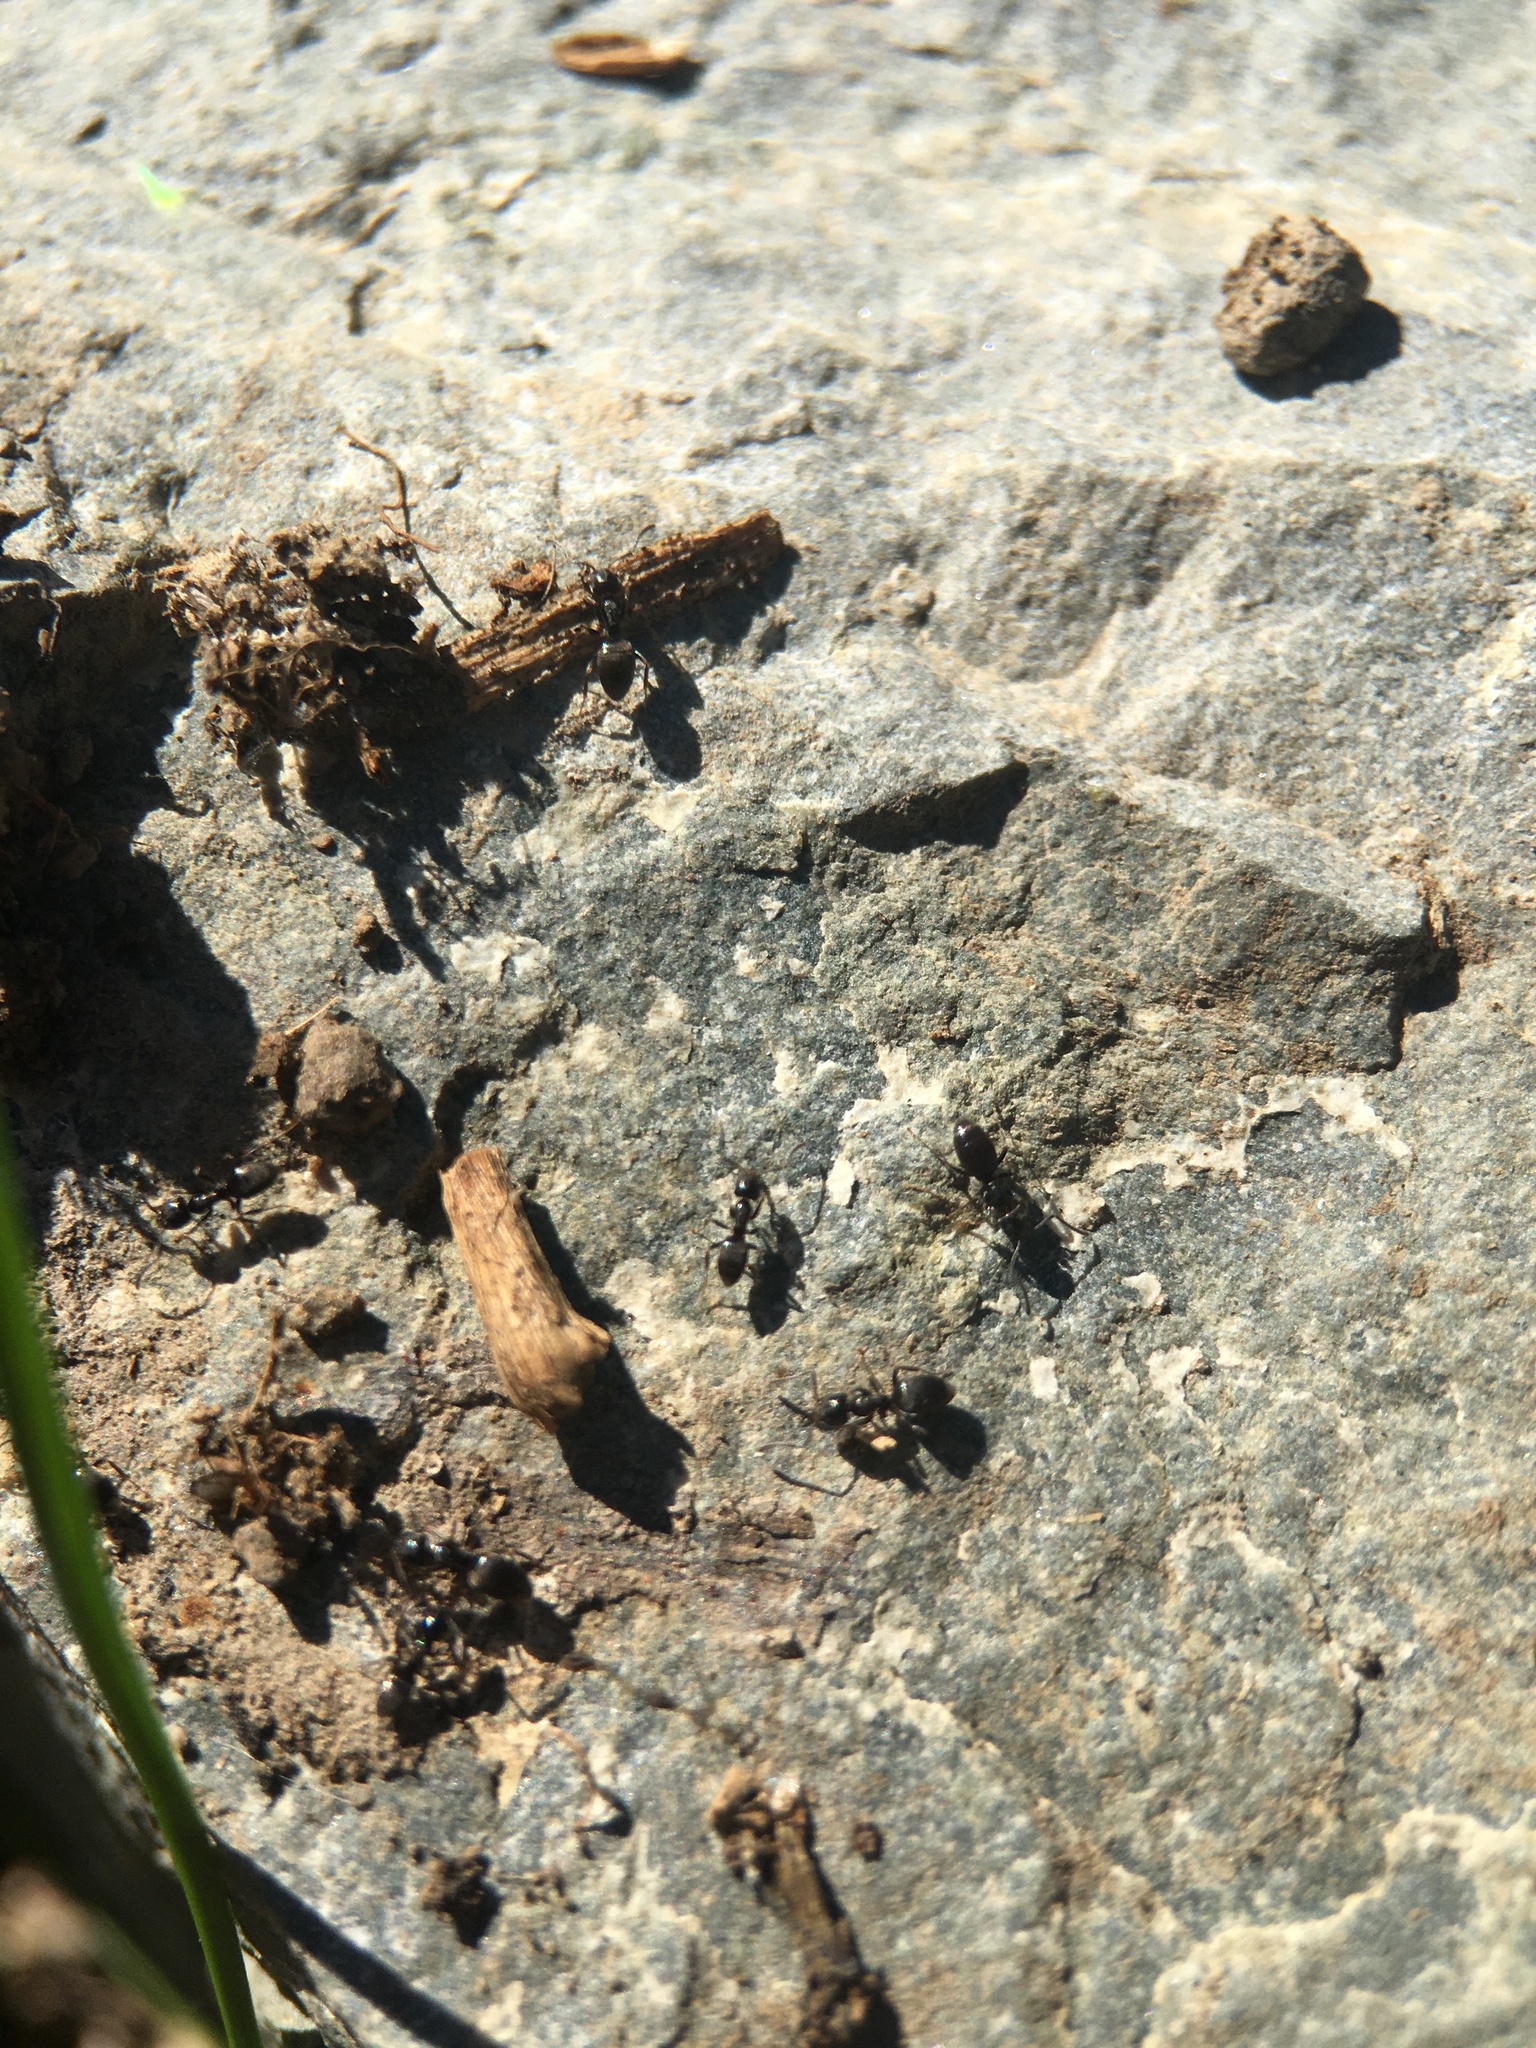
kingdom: Animalia
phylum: Arthropoda
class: Insecta
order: Hymenoptera
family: Formicidae
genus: Tapinoma
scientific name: Tapinoma sessile
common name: Odorous house ant
